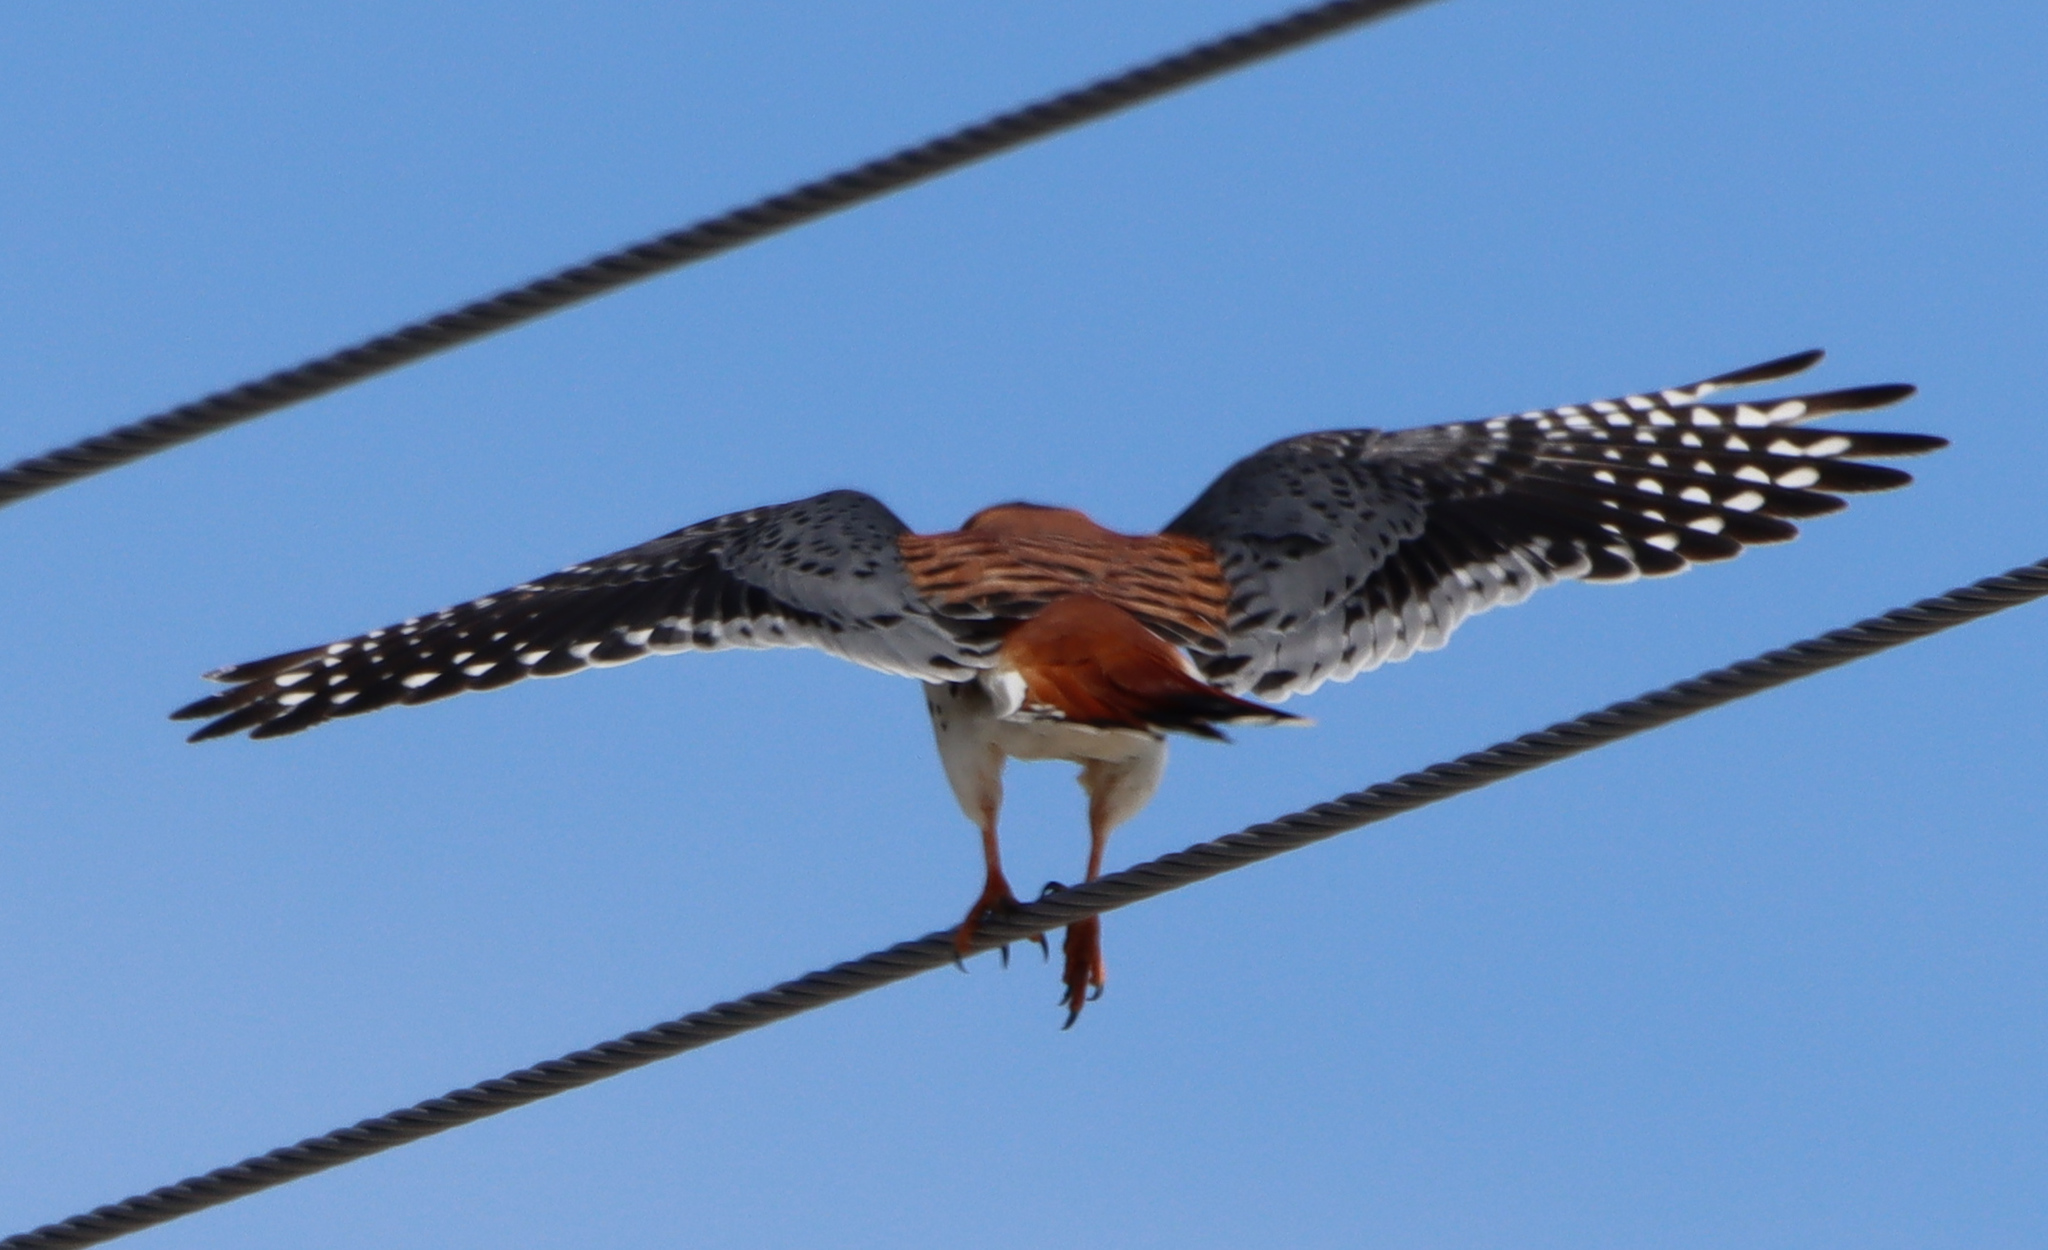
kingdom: Animalia
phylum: Chordata
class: Aves
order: Falconiformes
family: Falconidae
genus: Falco
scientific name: Falco sparverius
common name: American kestrel
